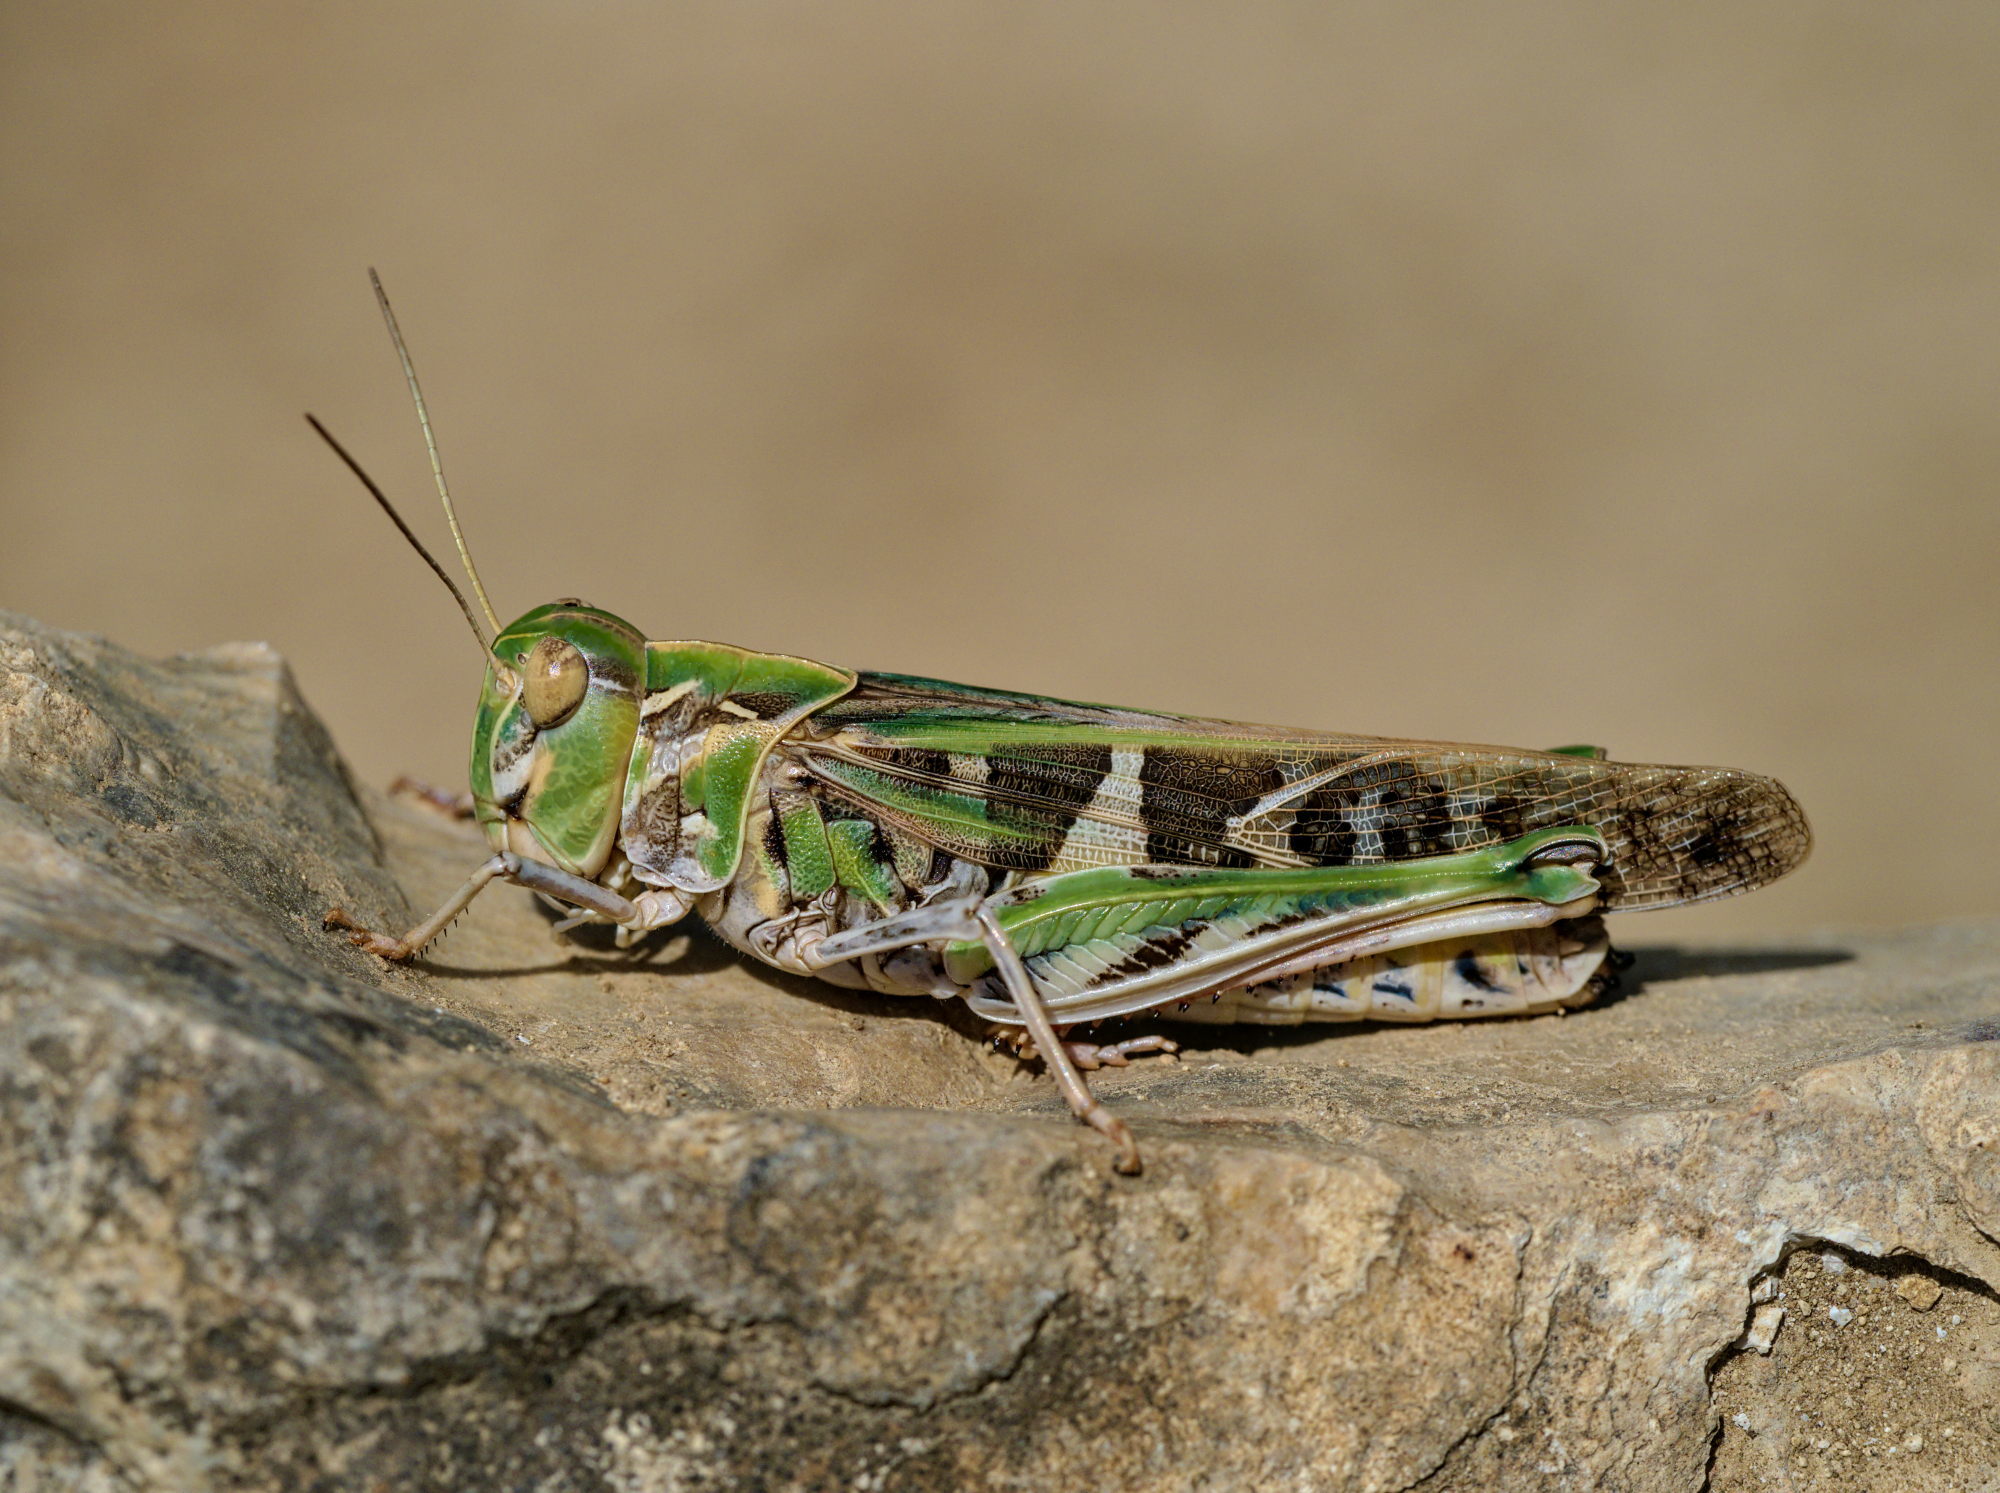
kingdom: Animalia
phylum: Arthropoda
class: Insecta
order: Orthoptera
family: Acrididae
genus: Oedaleus
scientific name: Oedaleus decorus
